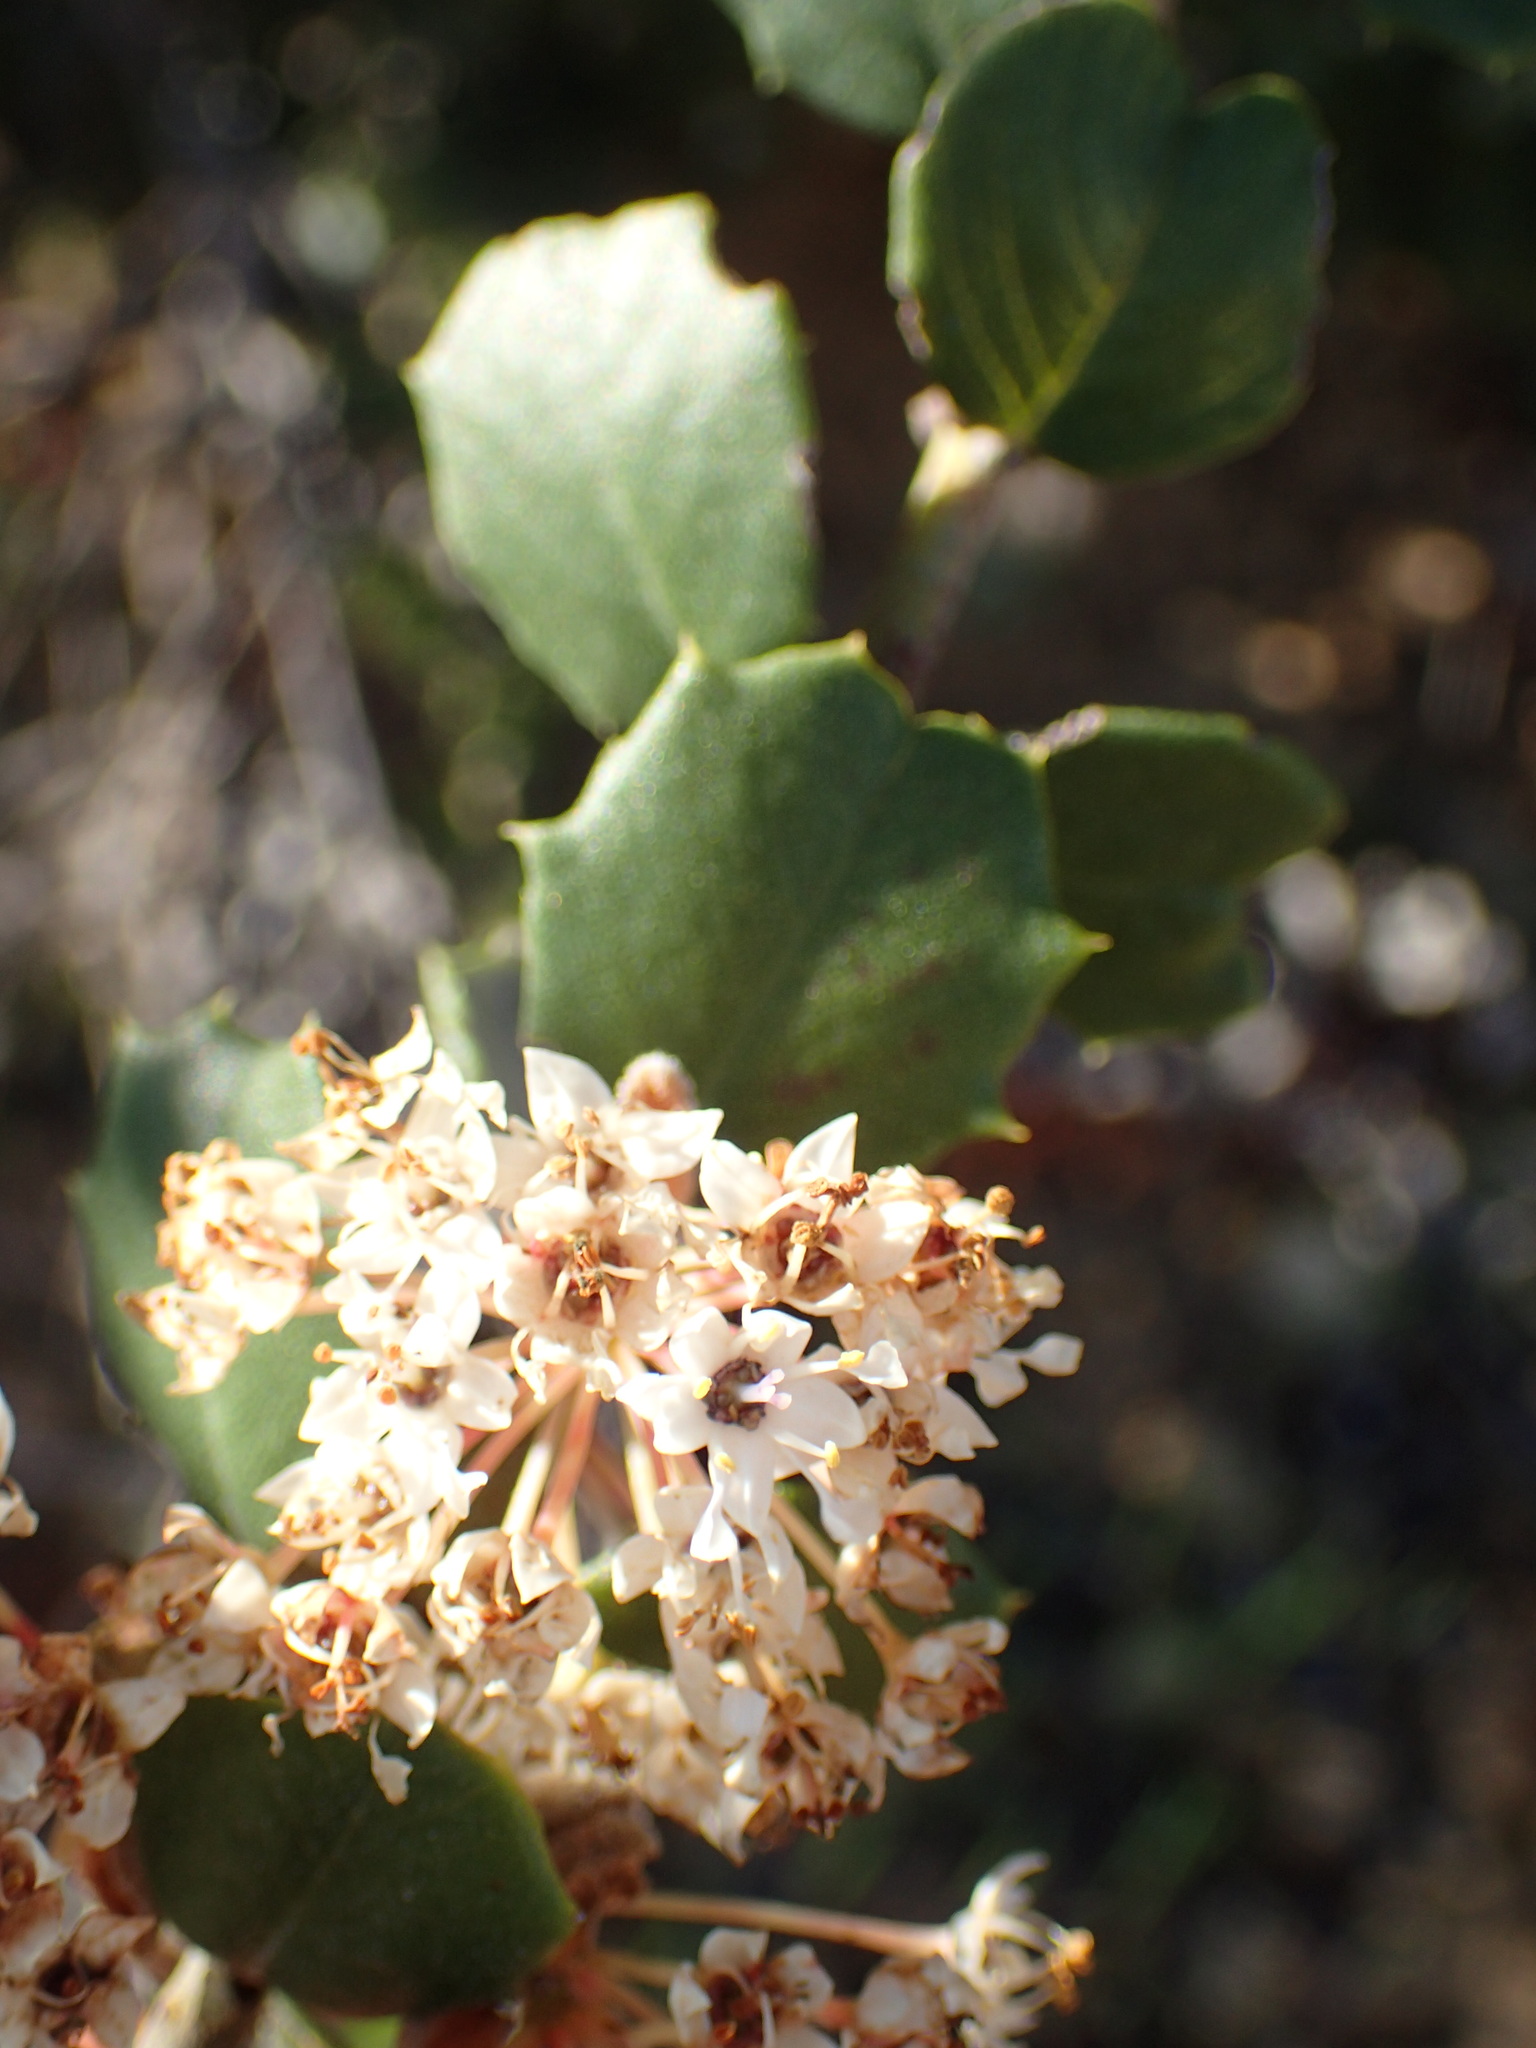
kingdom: Plantae
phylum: Tracheophyta
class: Magnoliopsida
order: Rosales
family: Rhamnaceae
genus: Ceanothus
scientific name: Ceanothus crassifolius
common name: Hoaryleaf ceanothus
